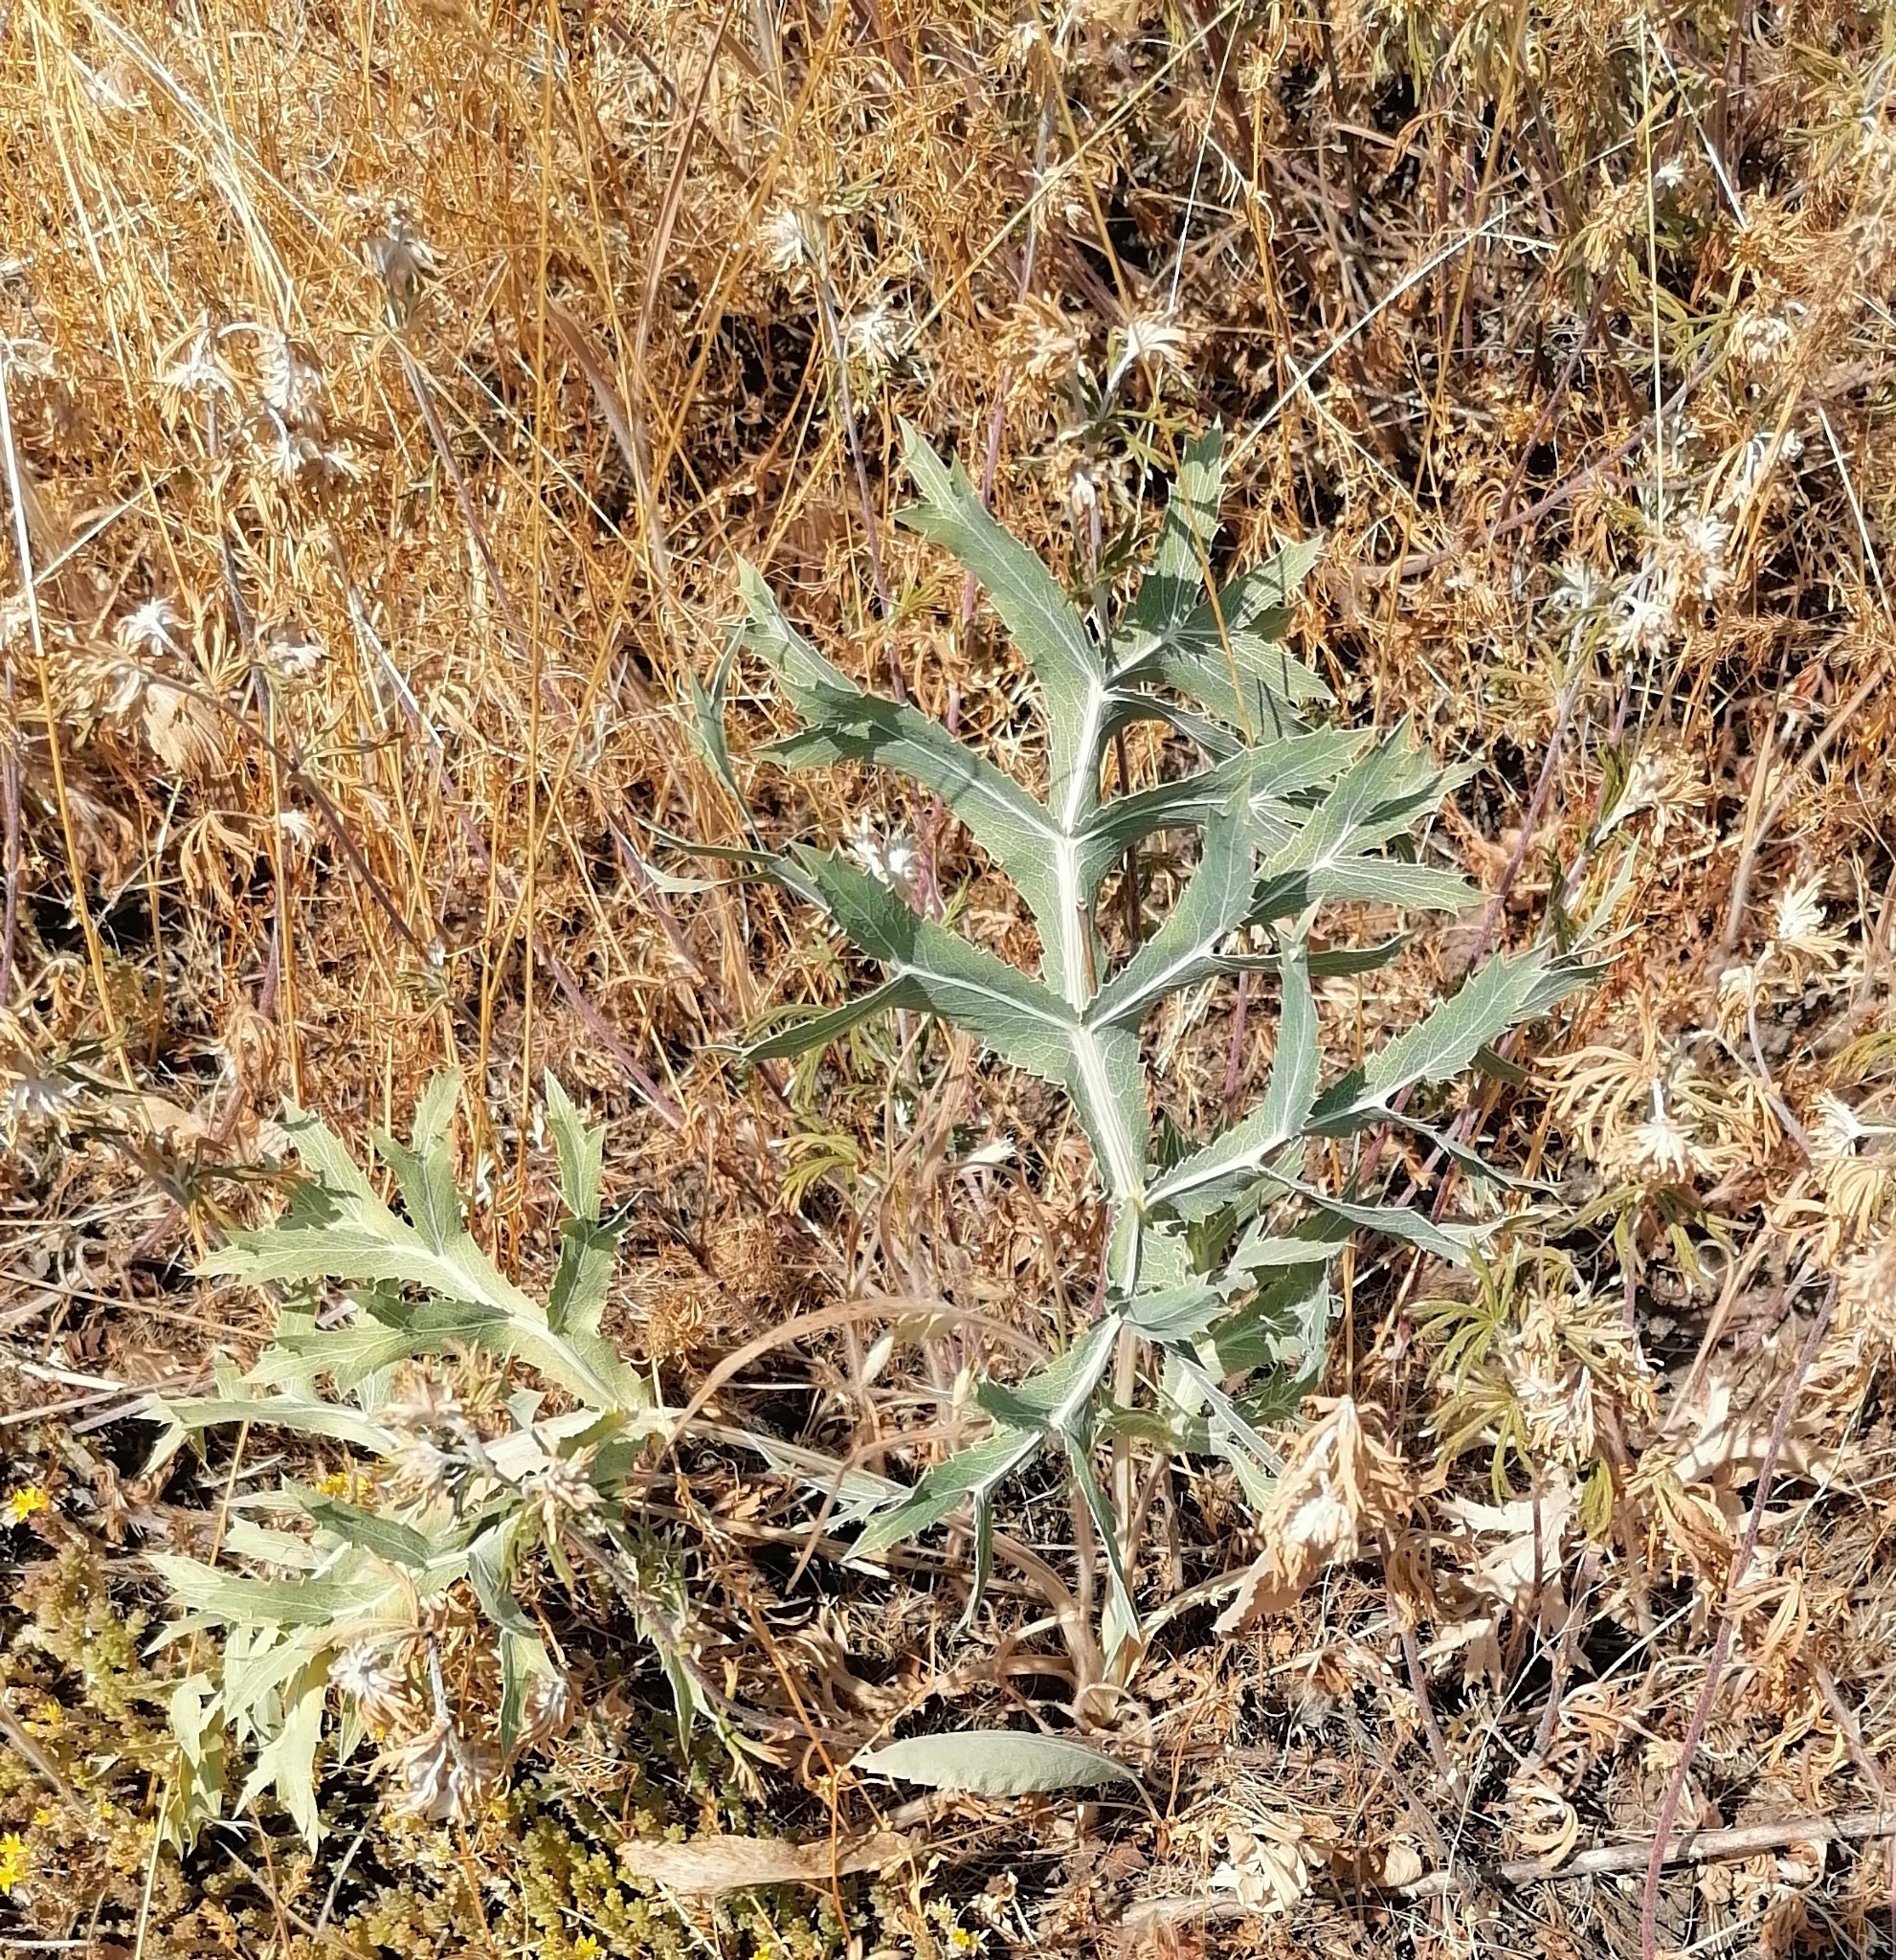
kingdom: Plantae
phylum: Tracheophyta
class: Magnoliopsida
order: Apiales
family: Apiaceae
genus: Eryngium
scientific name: Eryngium campestre
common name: Field eryngo
